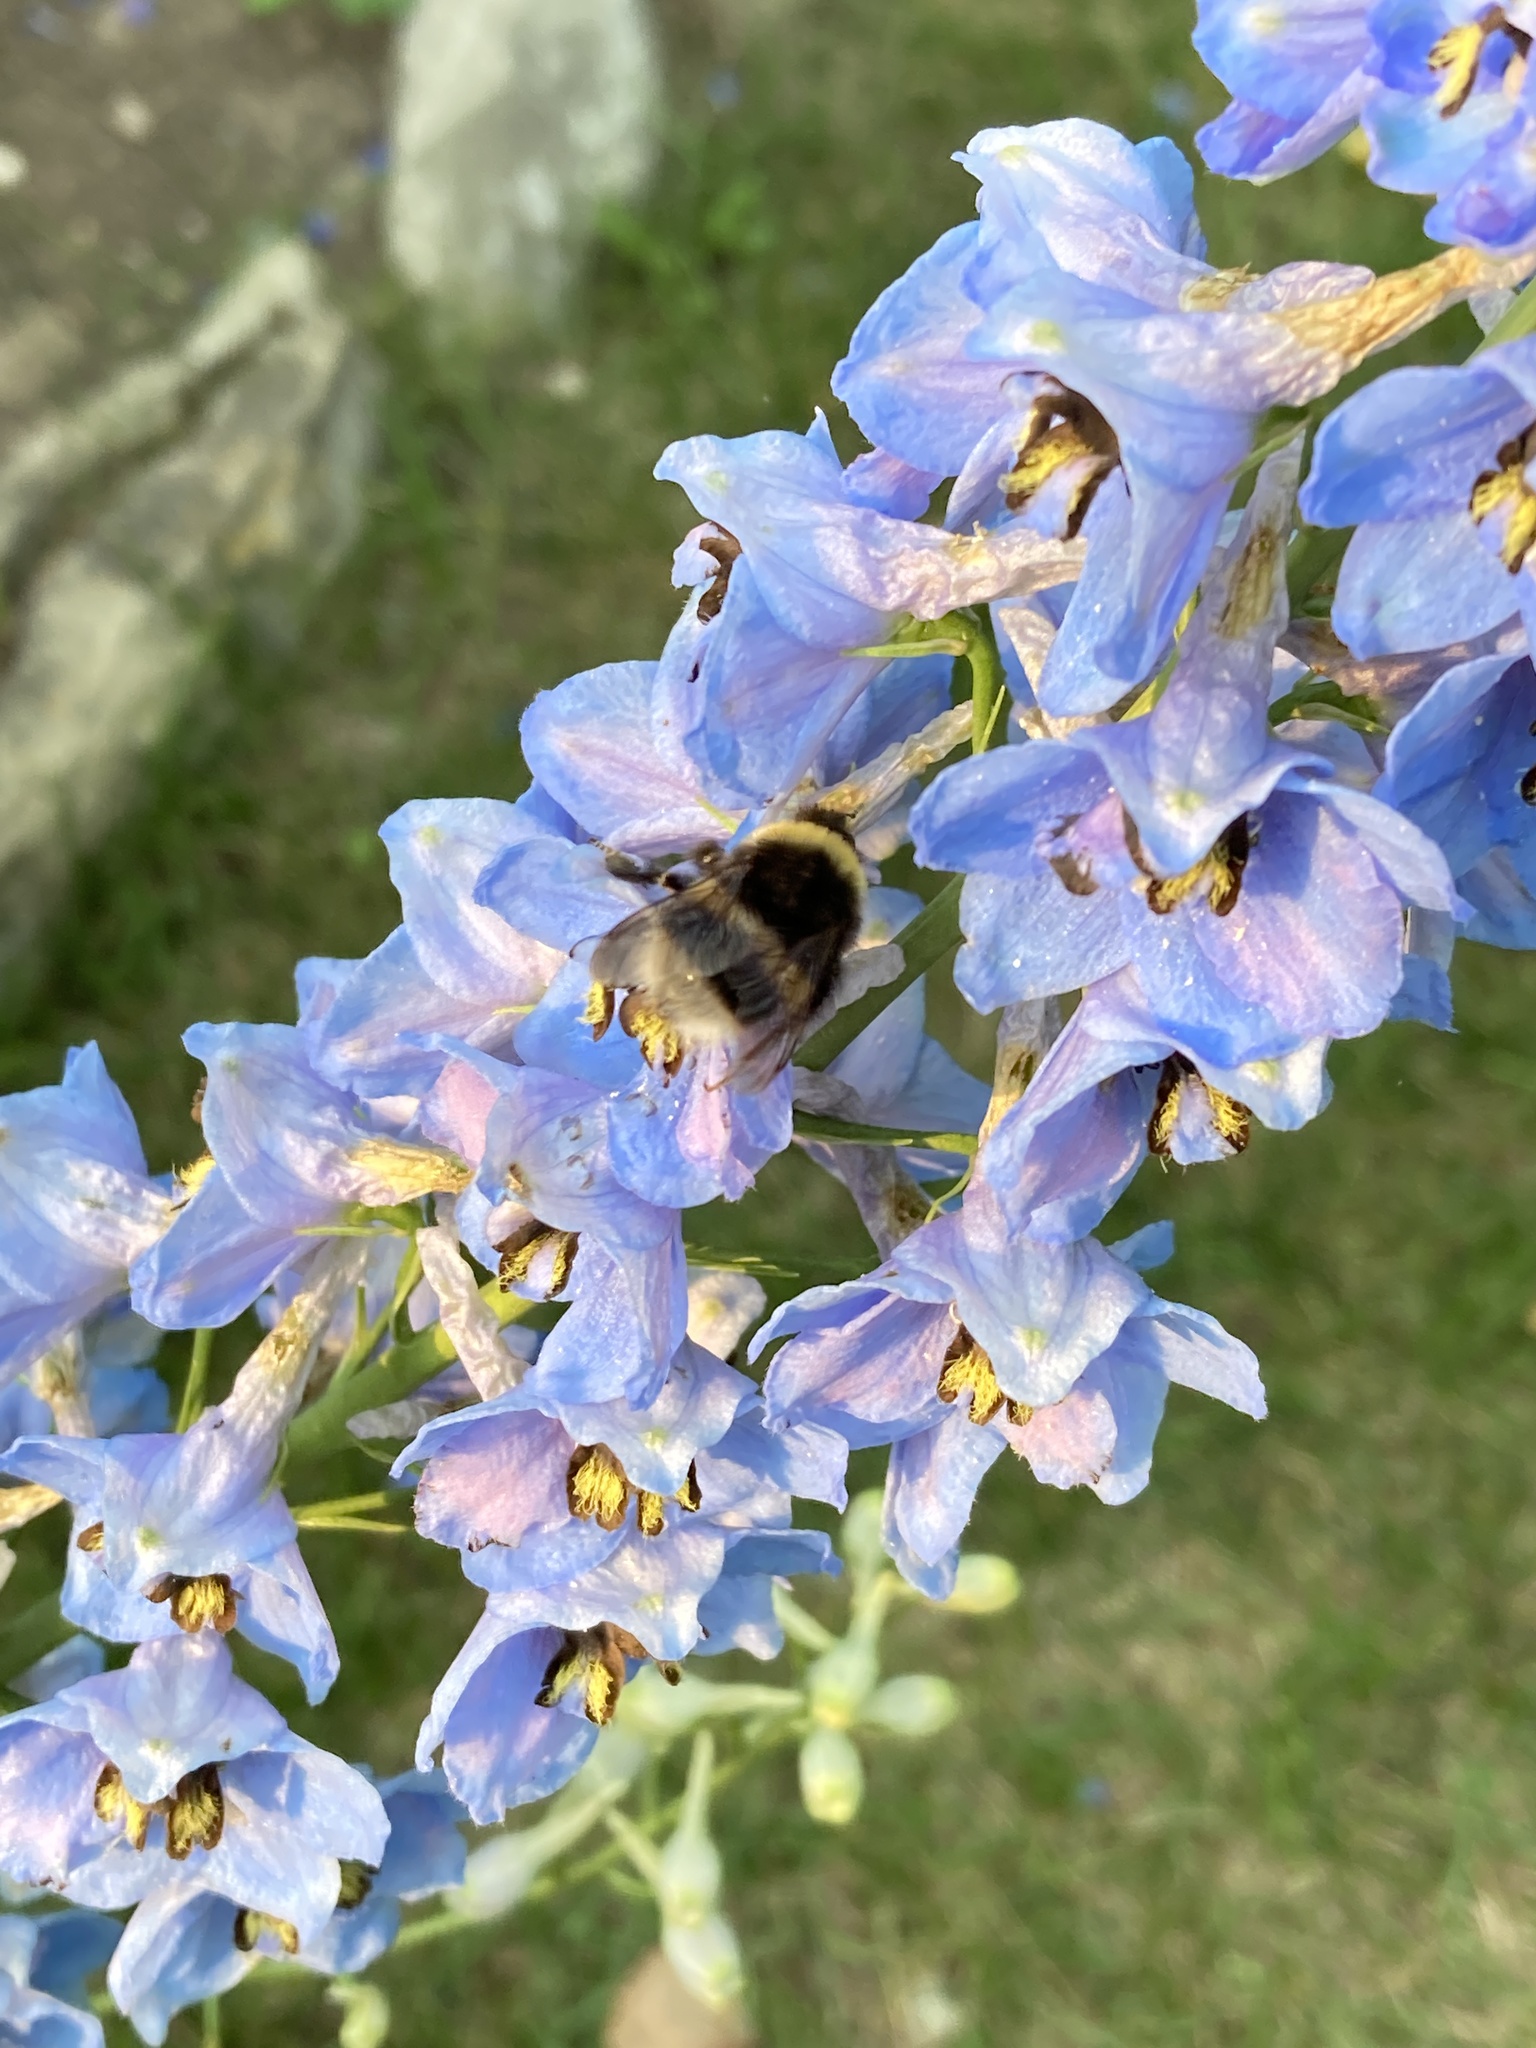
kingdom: Animalia
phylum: Arthropoda
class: Insecta
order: Hymenoptera
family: Apidae
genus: Bombus
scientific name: Bombus cryptarum
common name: Cryptic bumblebee
